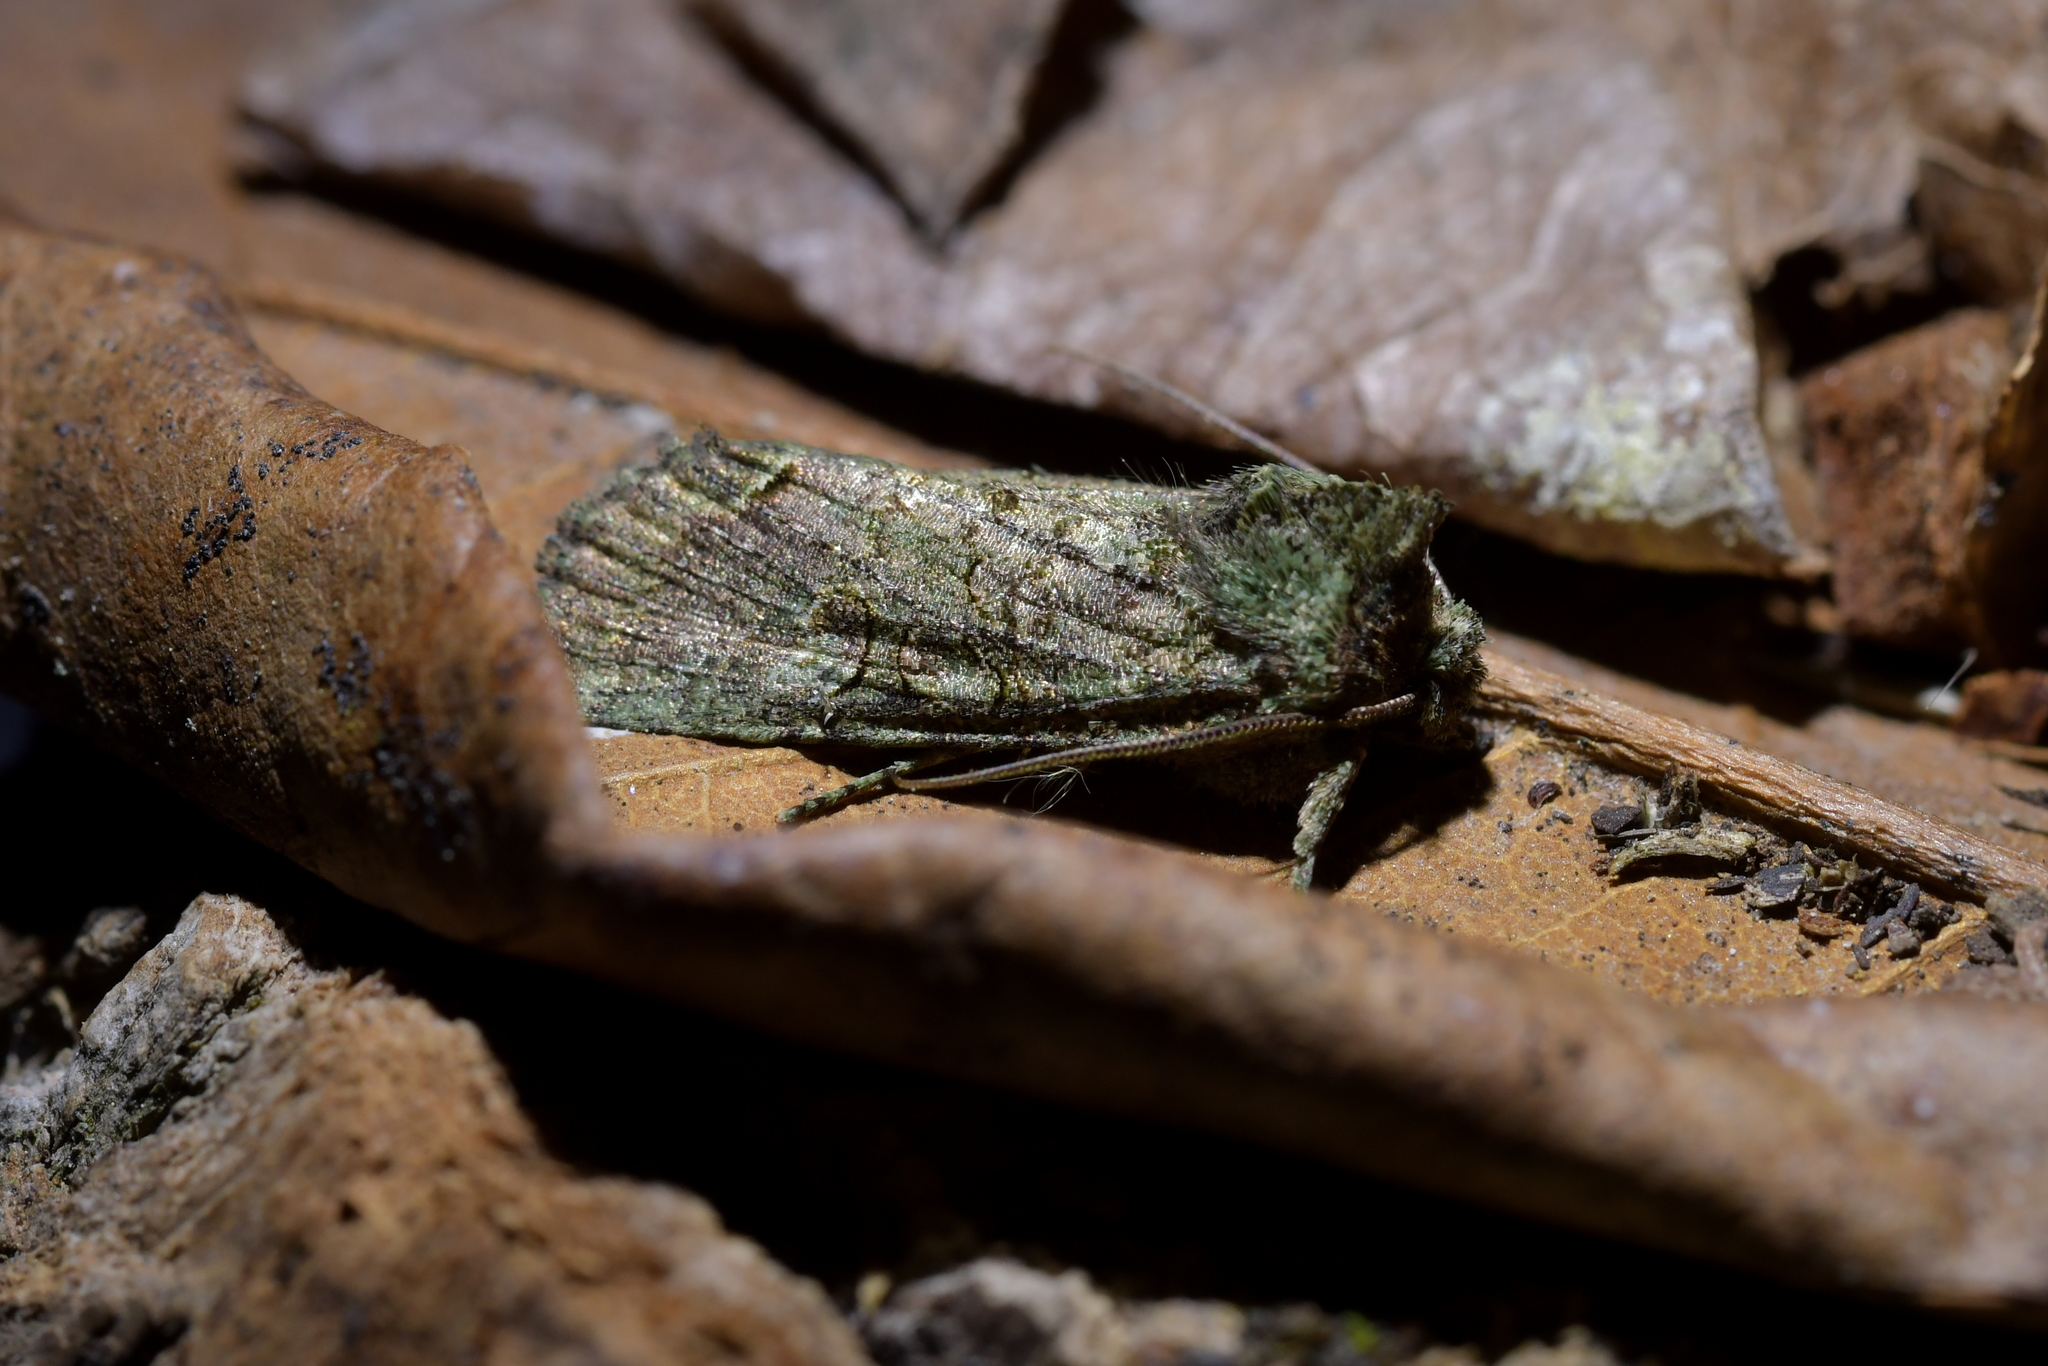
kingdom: Animalia
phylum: Arthropoda
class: Insecta
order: Lepidoptera
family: Noctuidae
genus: Meterana
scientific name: Meterana levis
